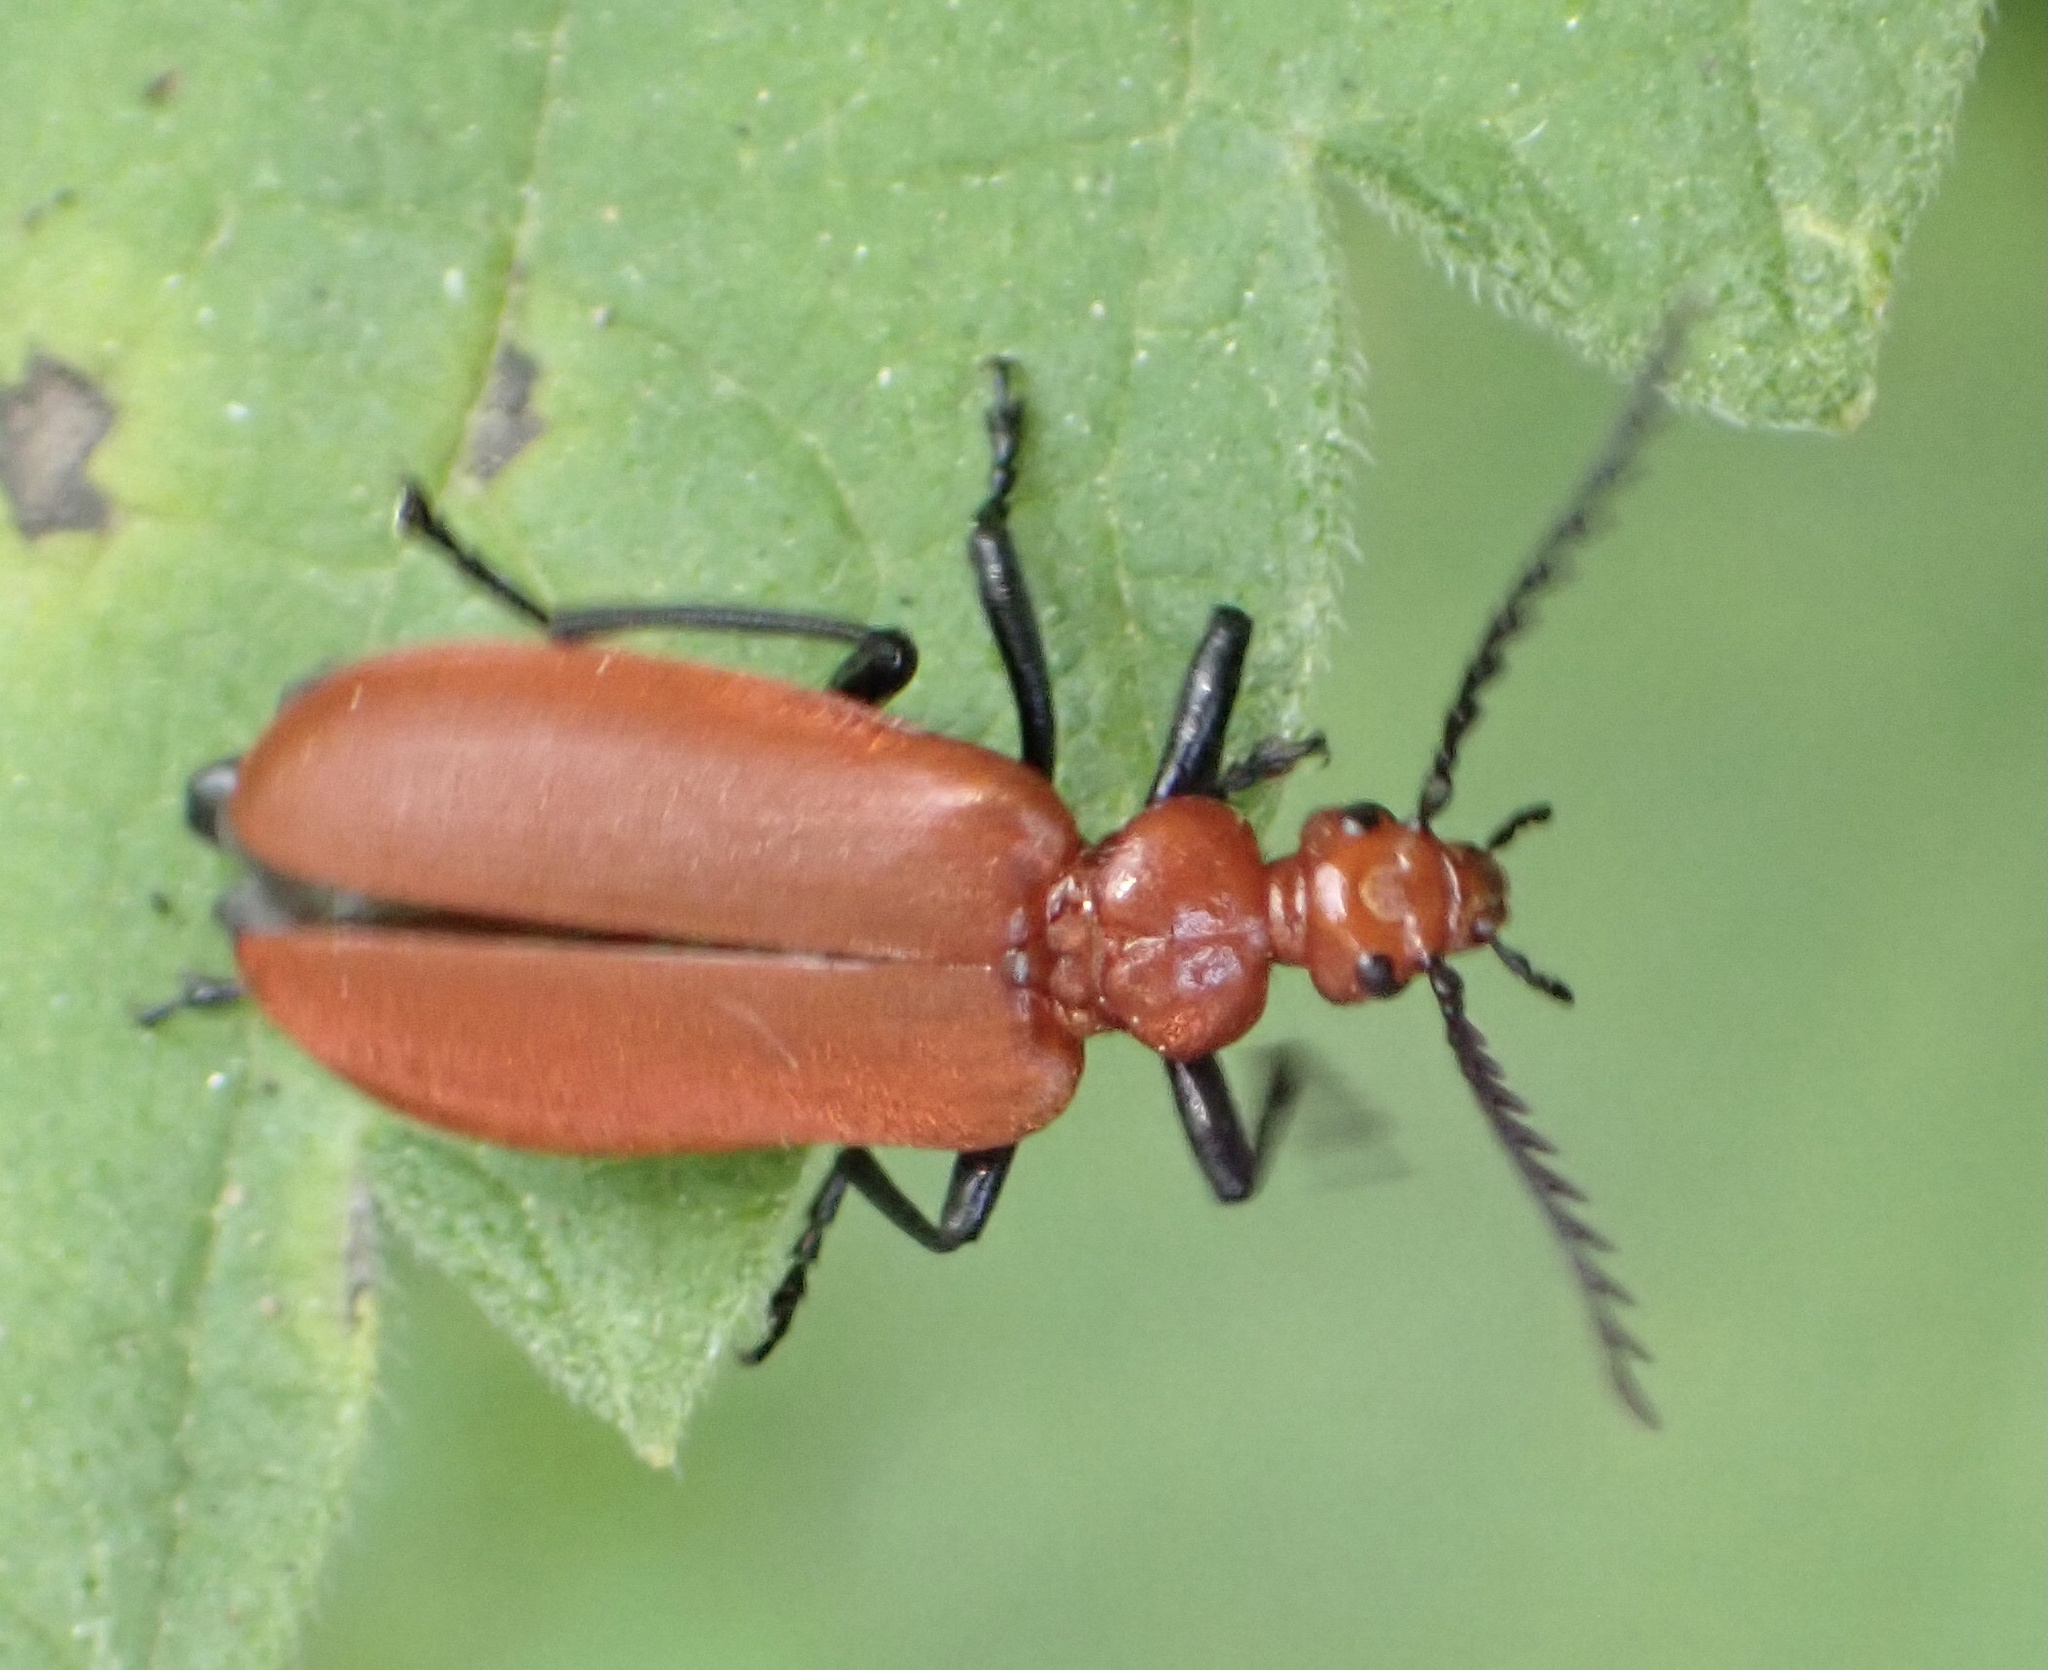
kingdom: Animalia
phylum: Arthropoda
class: Insecta
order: Coleoptera
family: Pyrochroidae
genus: Pyrochroa
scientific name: Pyrochroa serraticornis
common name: Red-headed cardinal beetle
